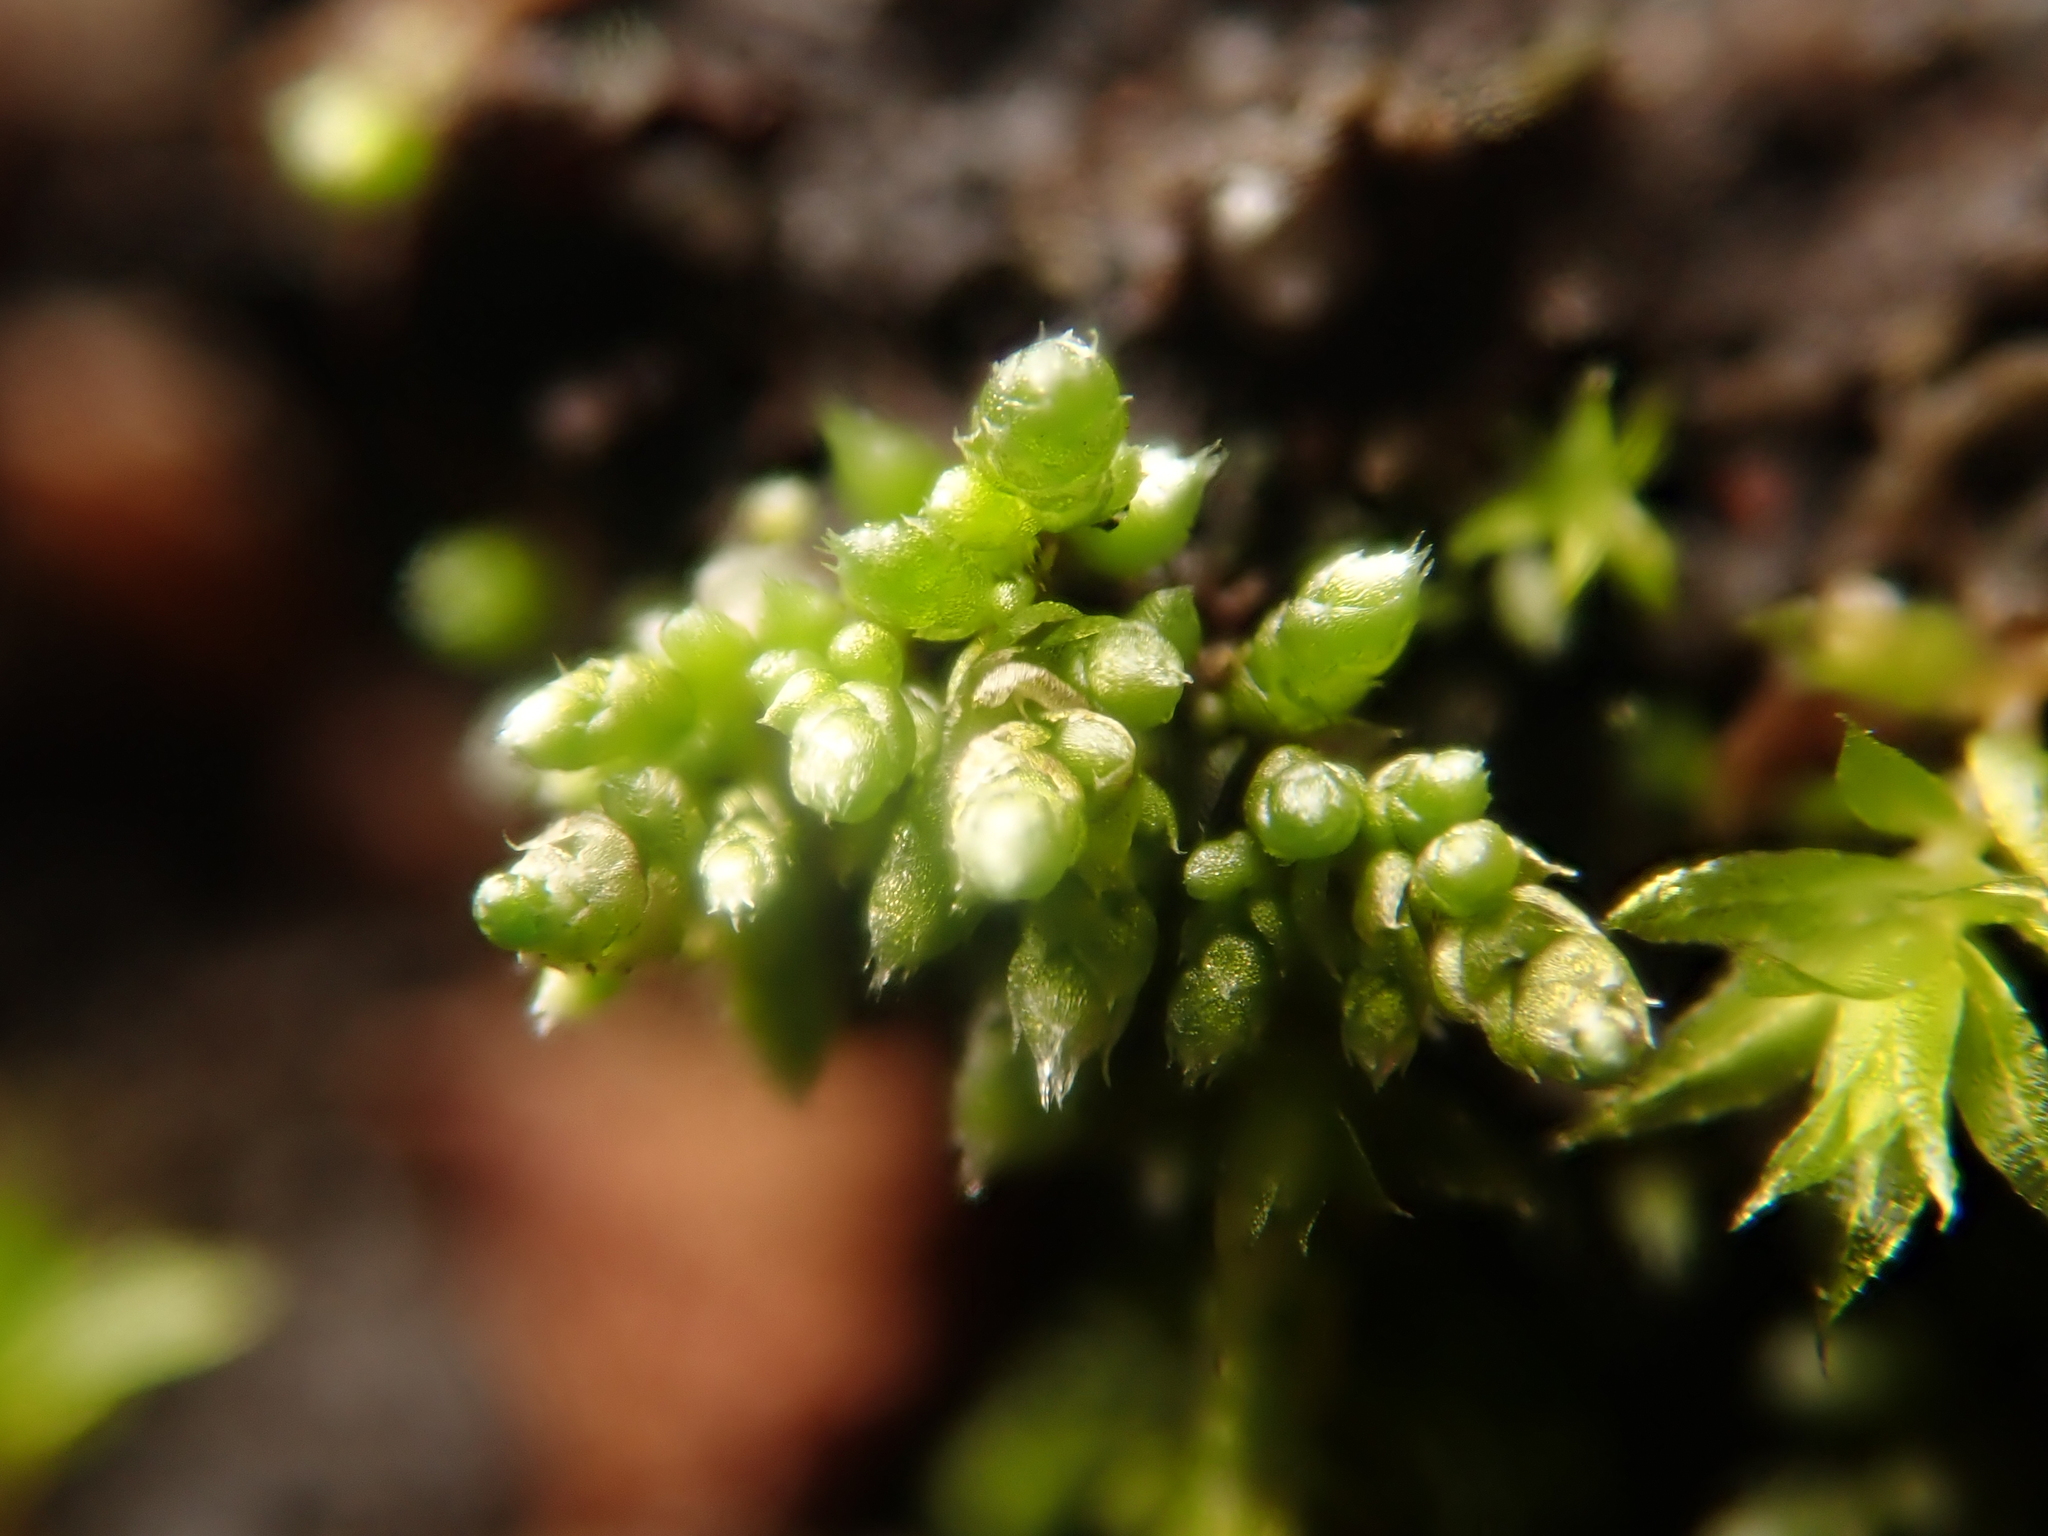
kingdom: Plantae
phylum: Bryophyta
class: Bryopsida
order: Bryales
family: Bryaceae
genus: Bryum
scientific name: Bryum argenteum
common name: Silver-moss
